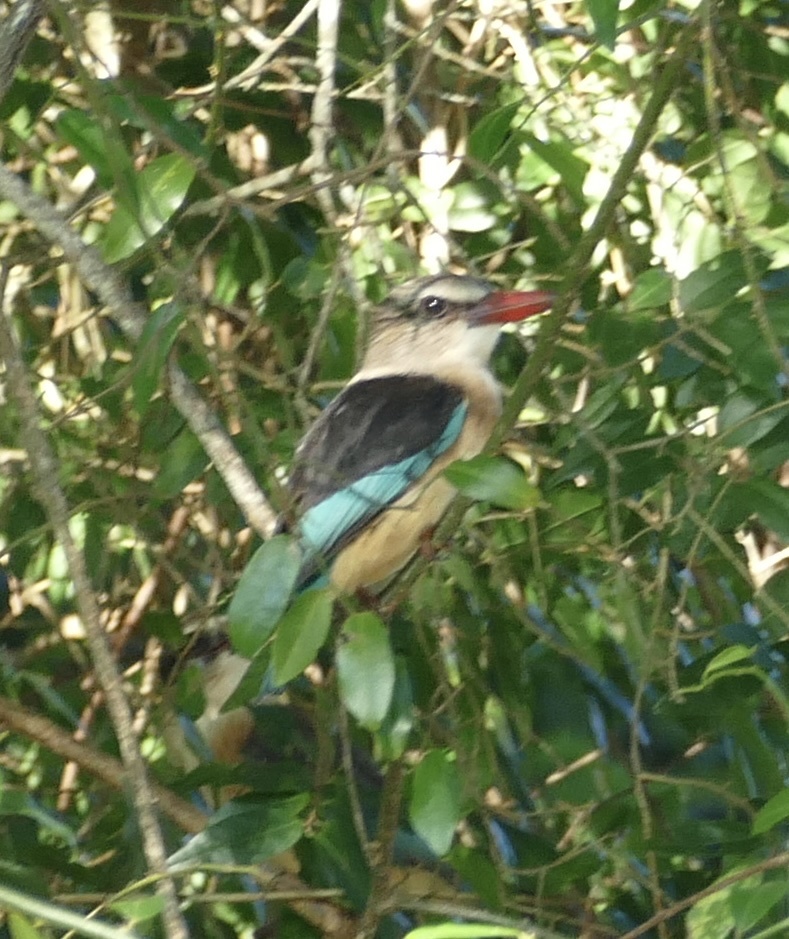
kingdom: Animalia
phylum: Chordata
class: Aves
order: Coraciiformes
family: Alcedinidae
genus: Halcyon
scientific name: Halcyon albiventris
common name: Brown-hooded kingfisher
